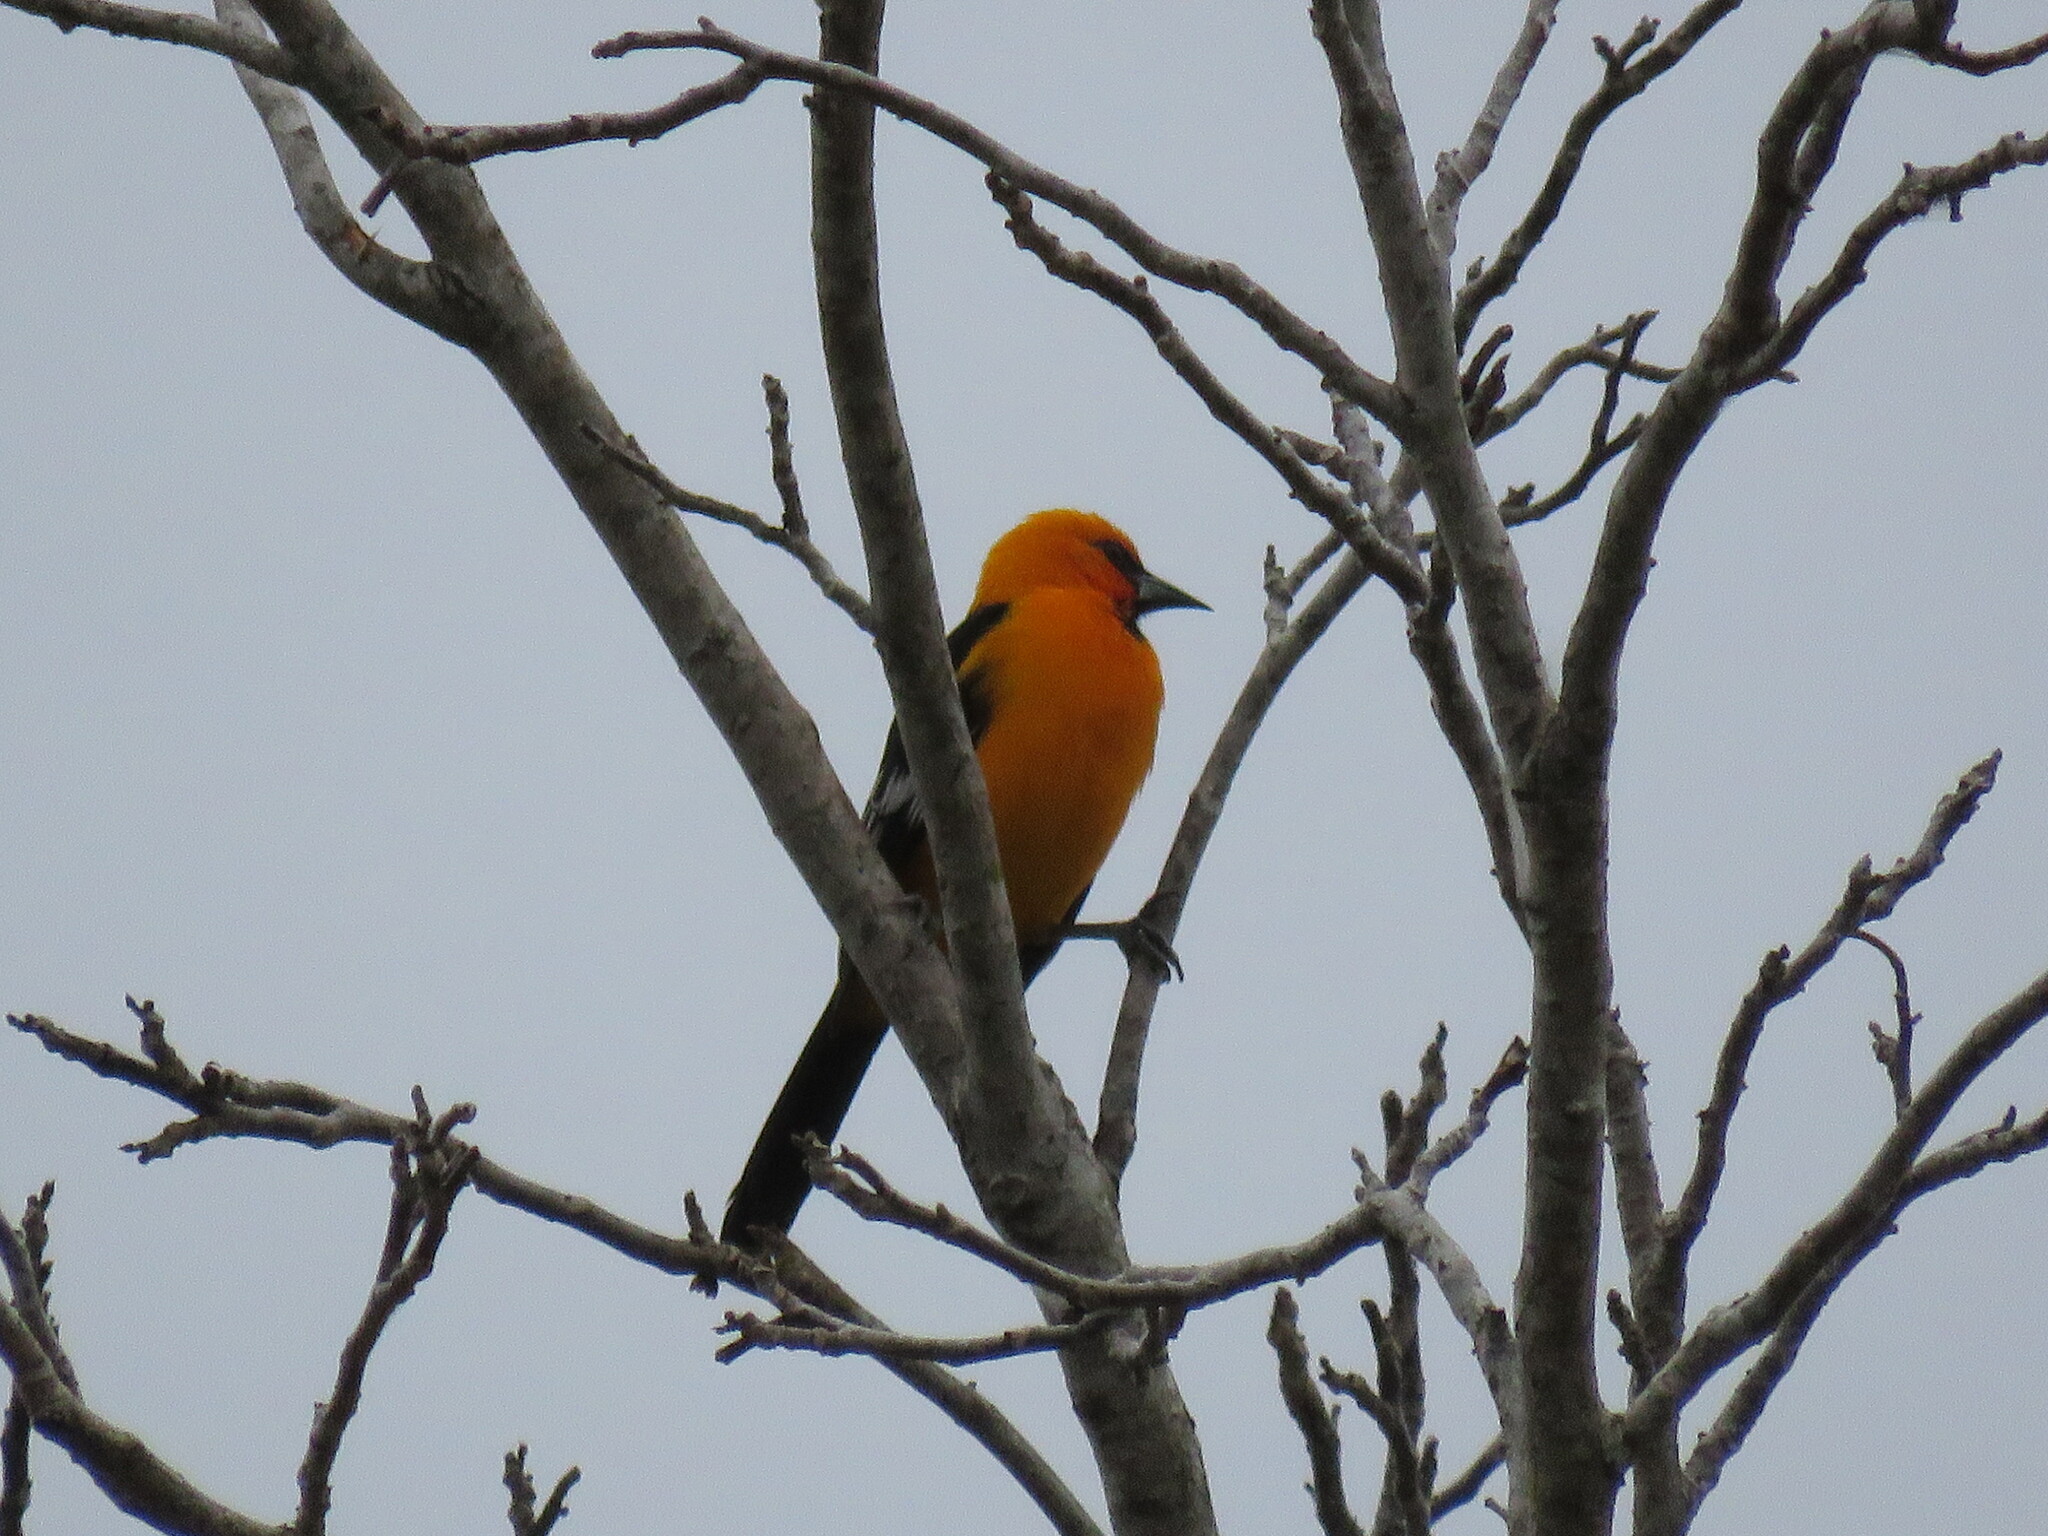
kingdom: Animalia
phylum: Chordata
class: Aves
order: Passeriformes
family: Icteridae
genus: Icterus
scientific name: Icterus gularis
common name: Altamira oriole
